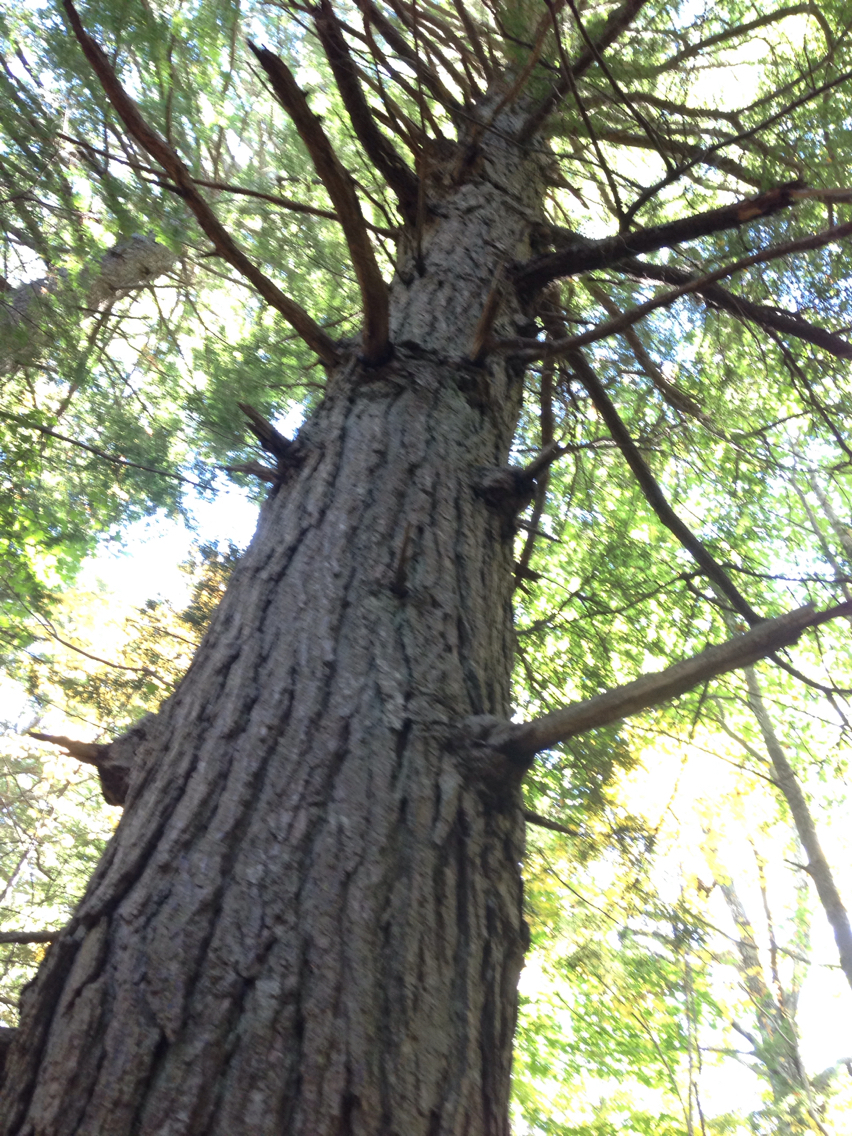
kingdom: Plantae
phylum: Tracheophyta
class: Pinopsida
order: Pinales
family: Pinaceae
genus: Tsuga
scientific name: Tsuga canadensis
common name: Eastern hemlock
